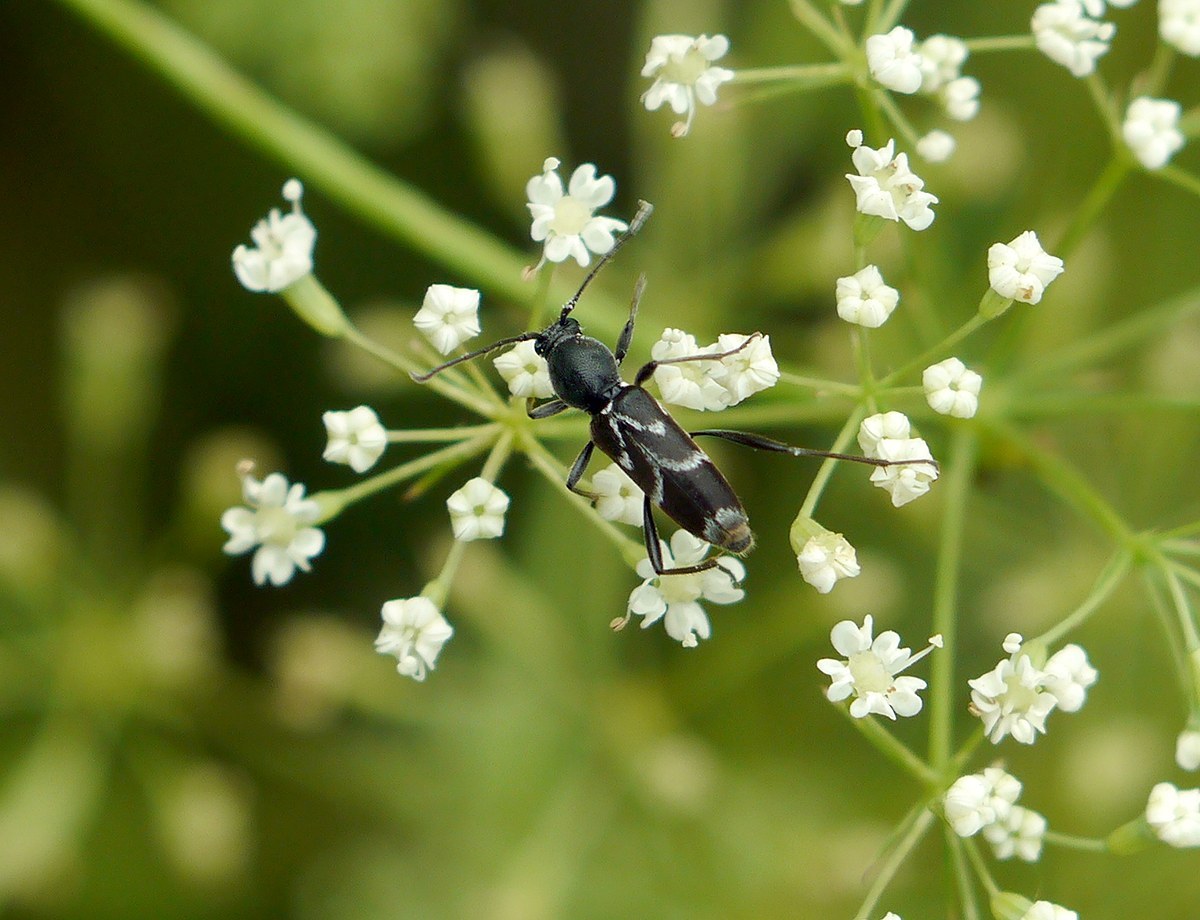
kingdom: Animalia
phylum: Arthropoda
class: Insecta
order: Coleoptera
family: Cerambycidae
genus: Chlorophorus
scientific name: Chlorophorus sartor
